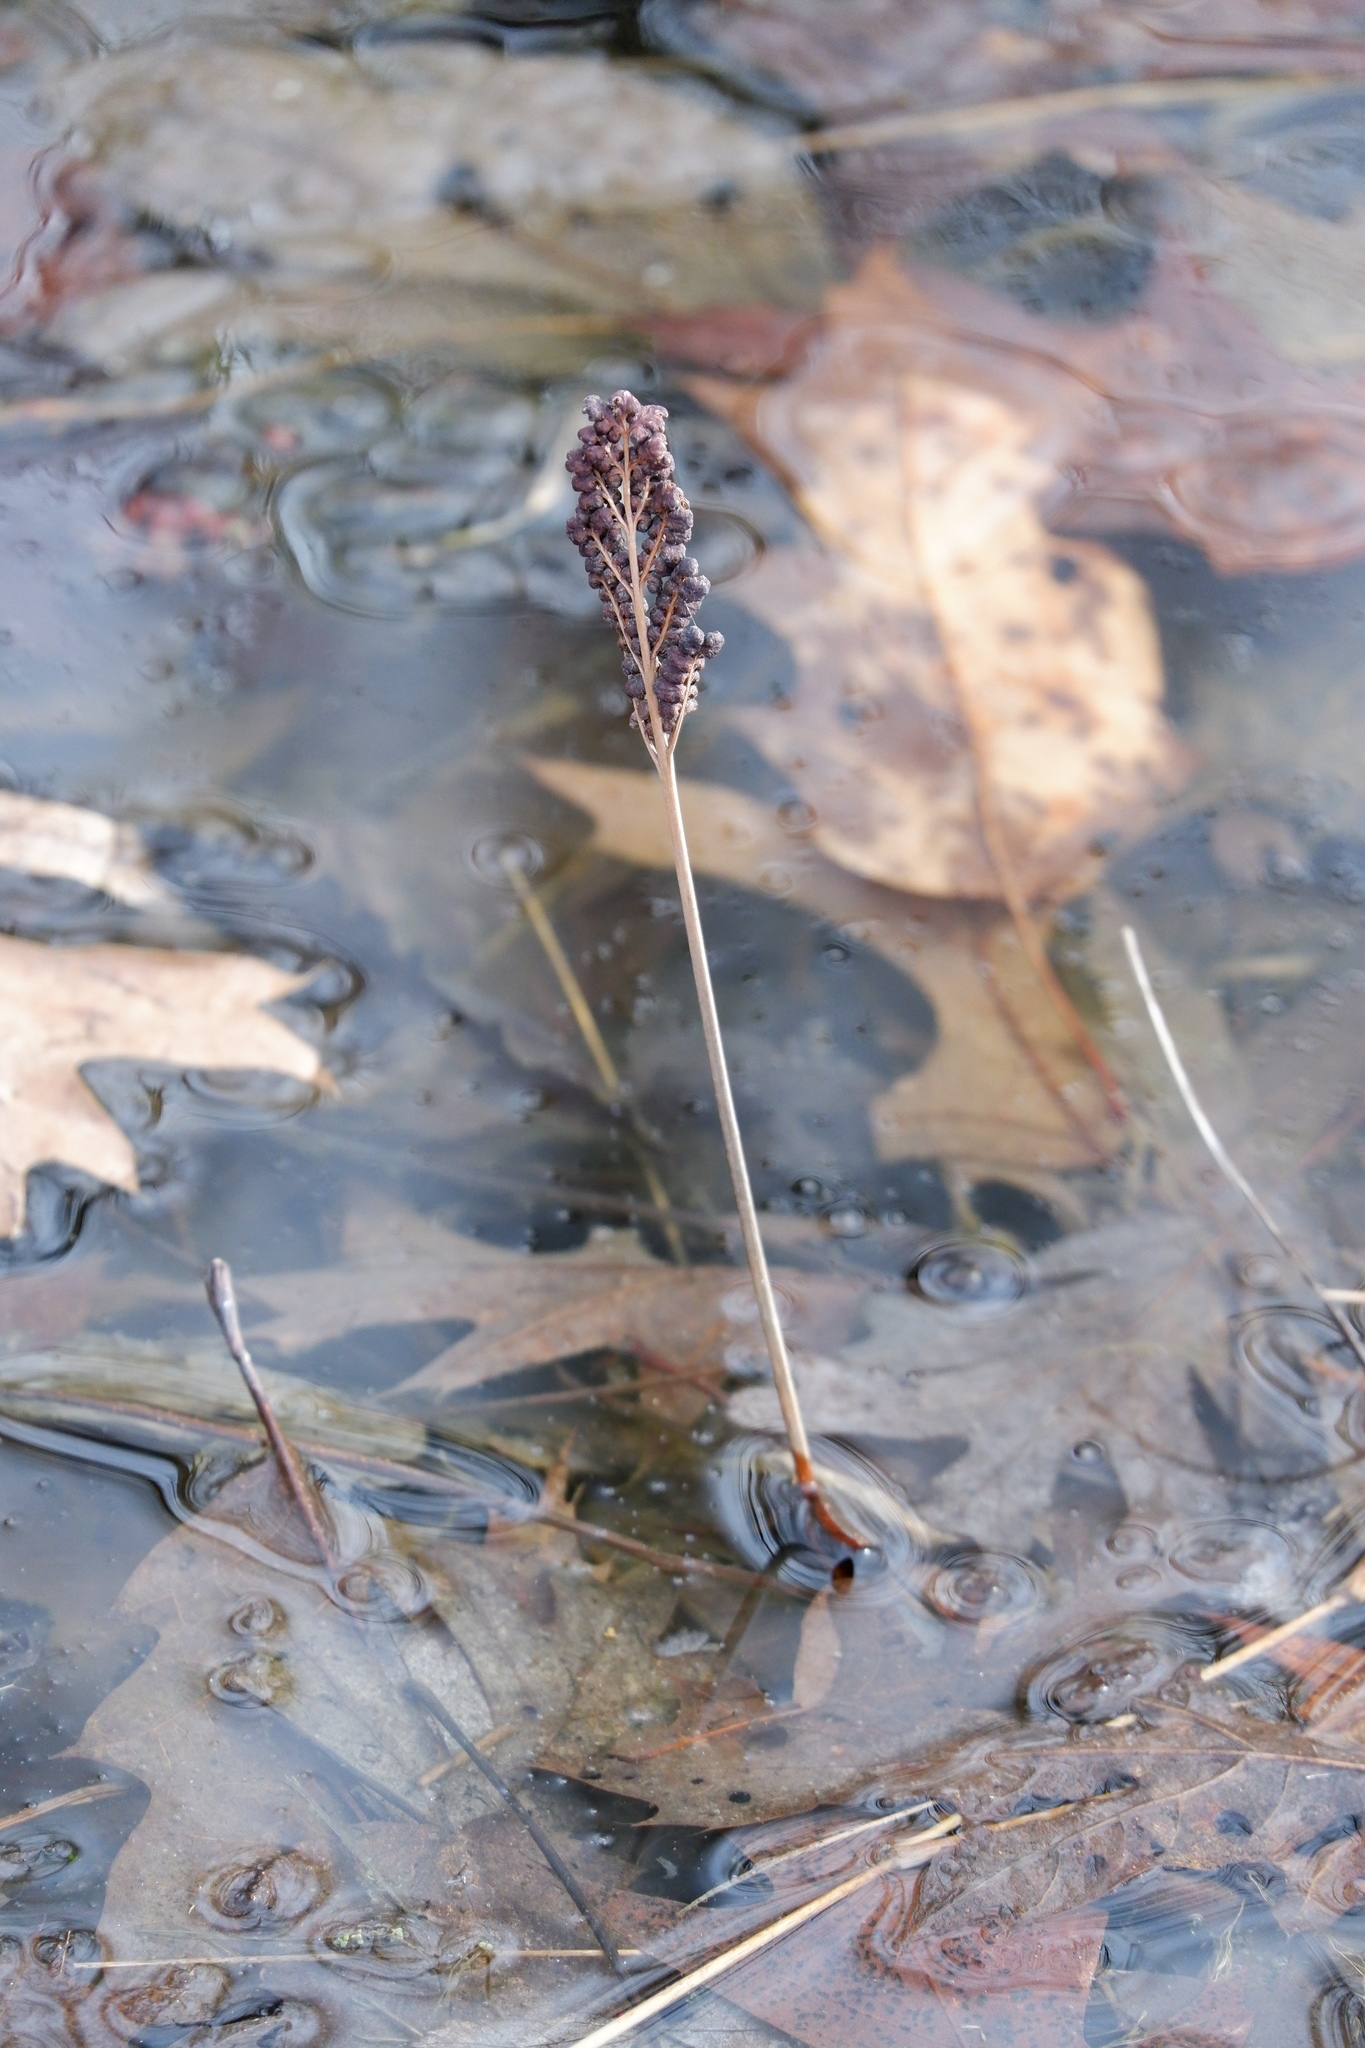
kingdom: Plantae
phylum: Tracheophyta
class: Polypodiopsida
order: Polypodiales
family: Onocleaceae
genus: Onoclea
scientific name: Onoclea sensibilis
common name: Sensitive fern
